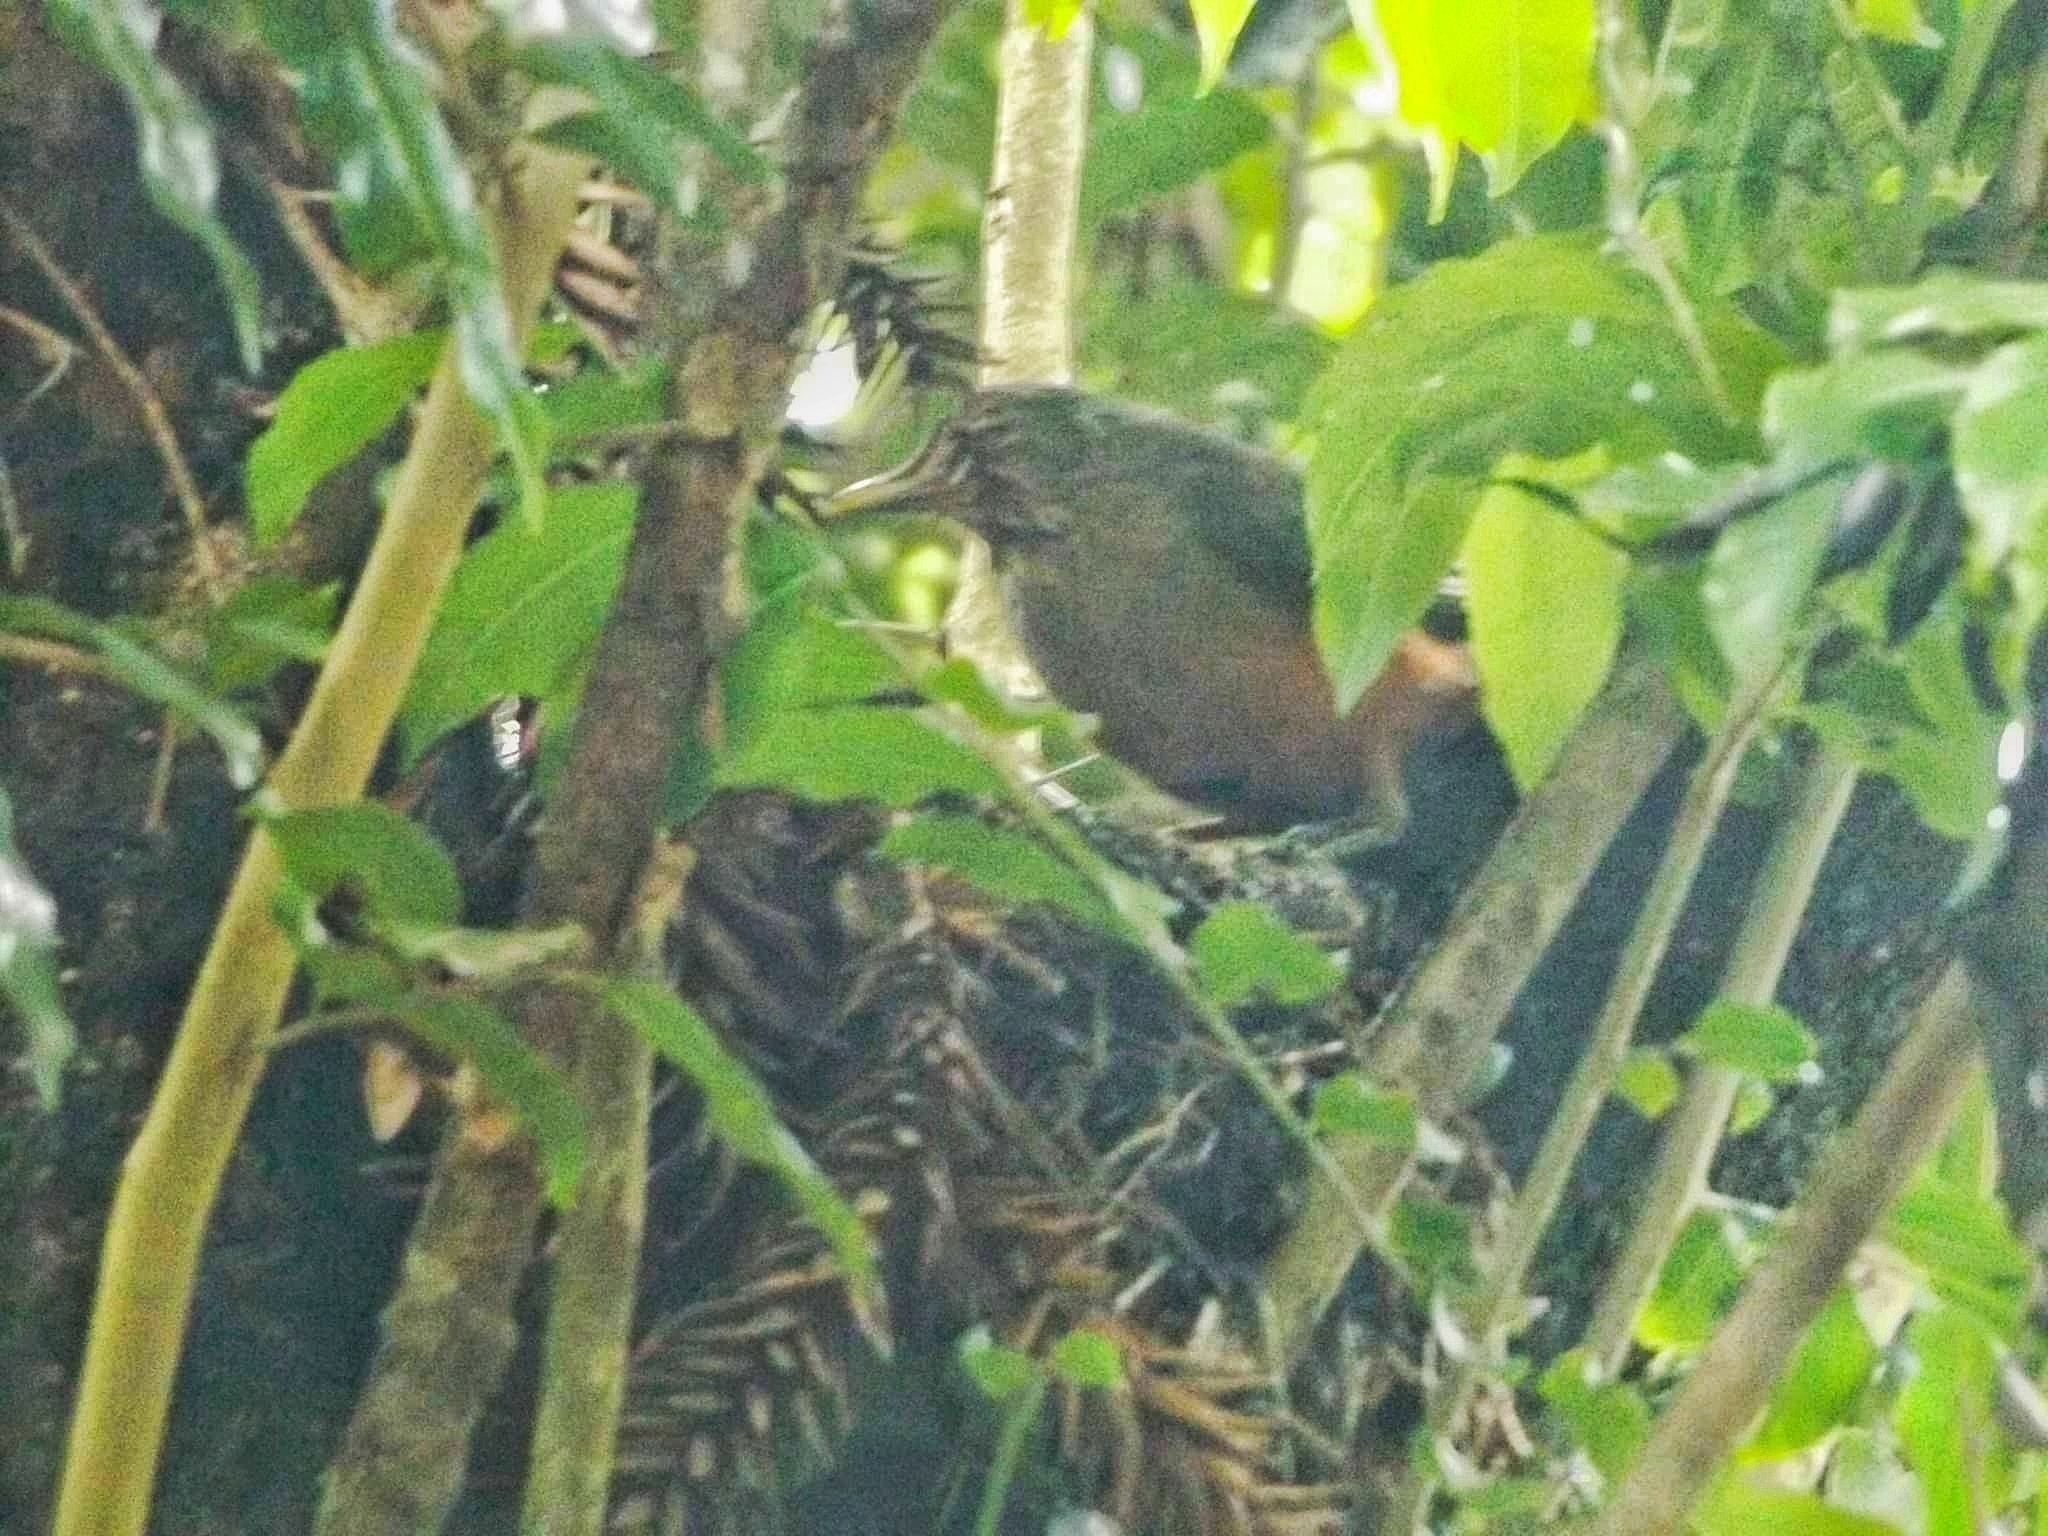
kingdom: Animalia
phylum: Chordata
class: Aves
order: Passeriformes
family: Turdidae
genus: Turdus
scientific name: Turdus rufiventris
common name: Rufous-bellied thrush
